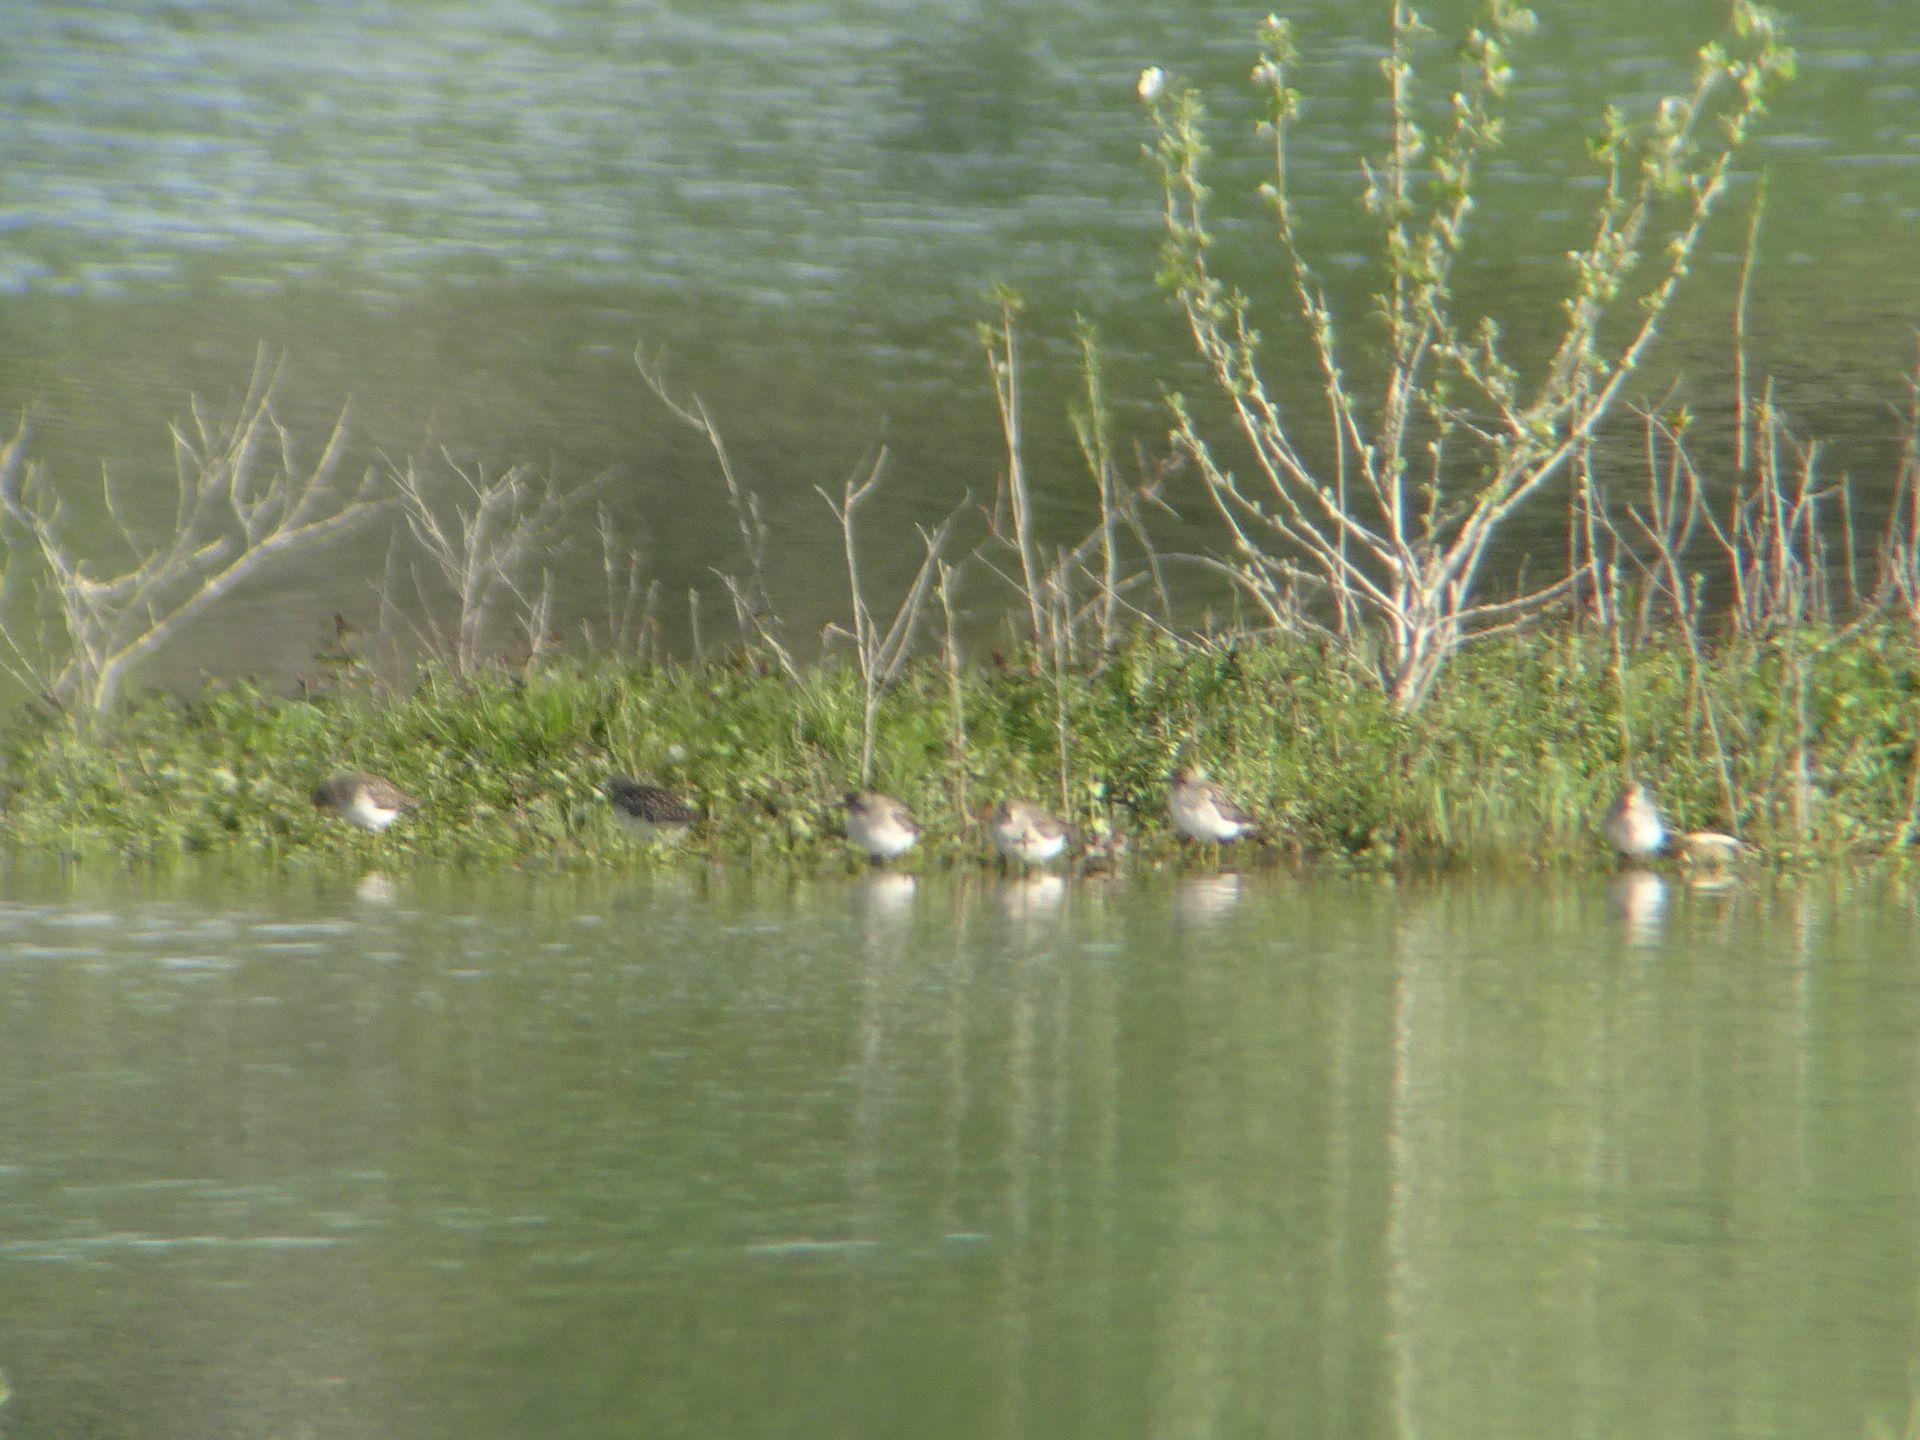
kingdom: Animalia
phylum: Chordata
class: Aves
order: Charadriiformes
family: Scolopacidae
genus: Tringa
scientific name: Tringa glareola
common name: Wood sandpiper
